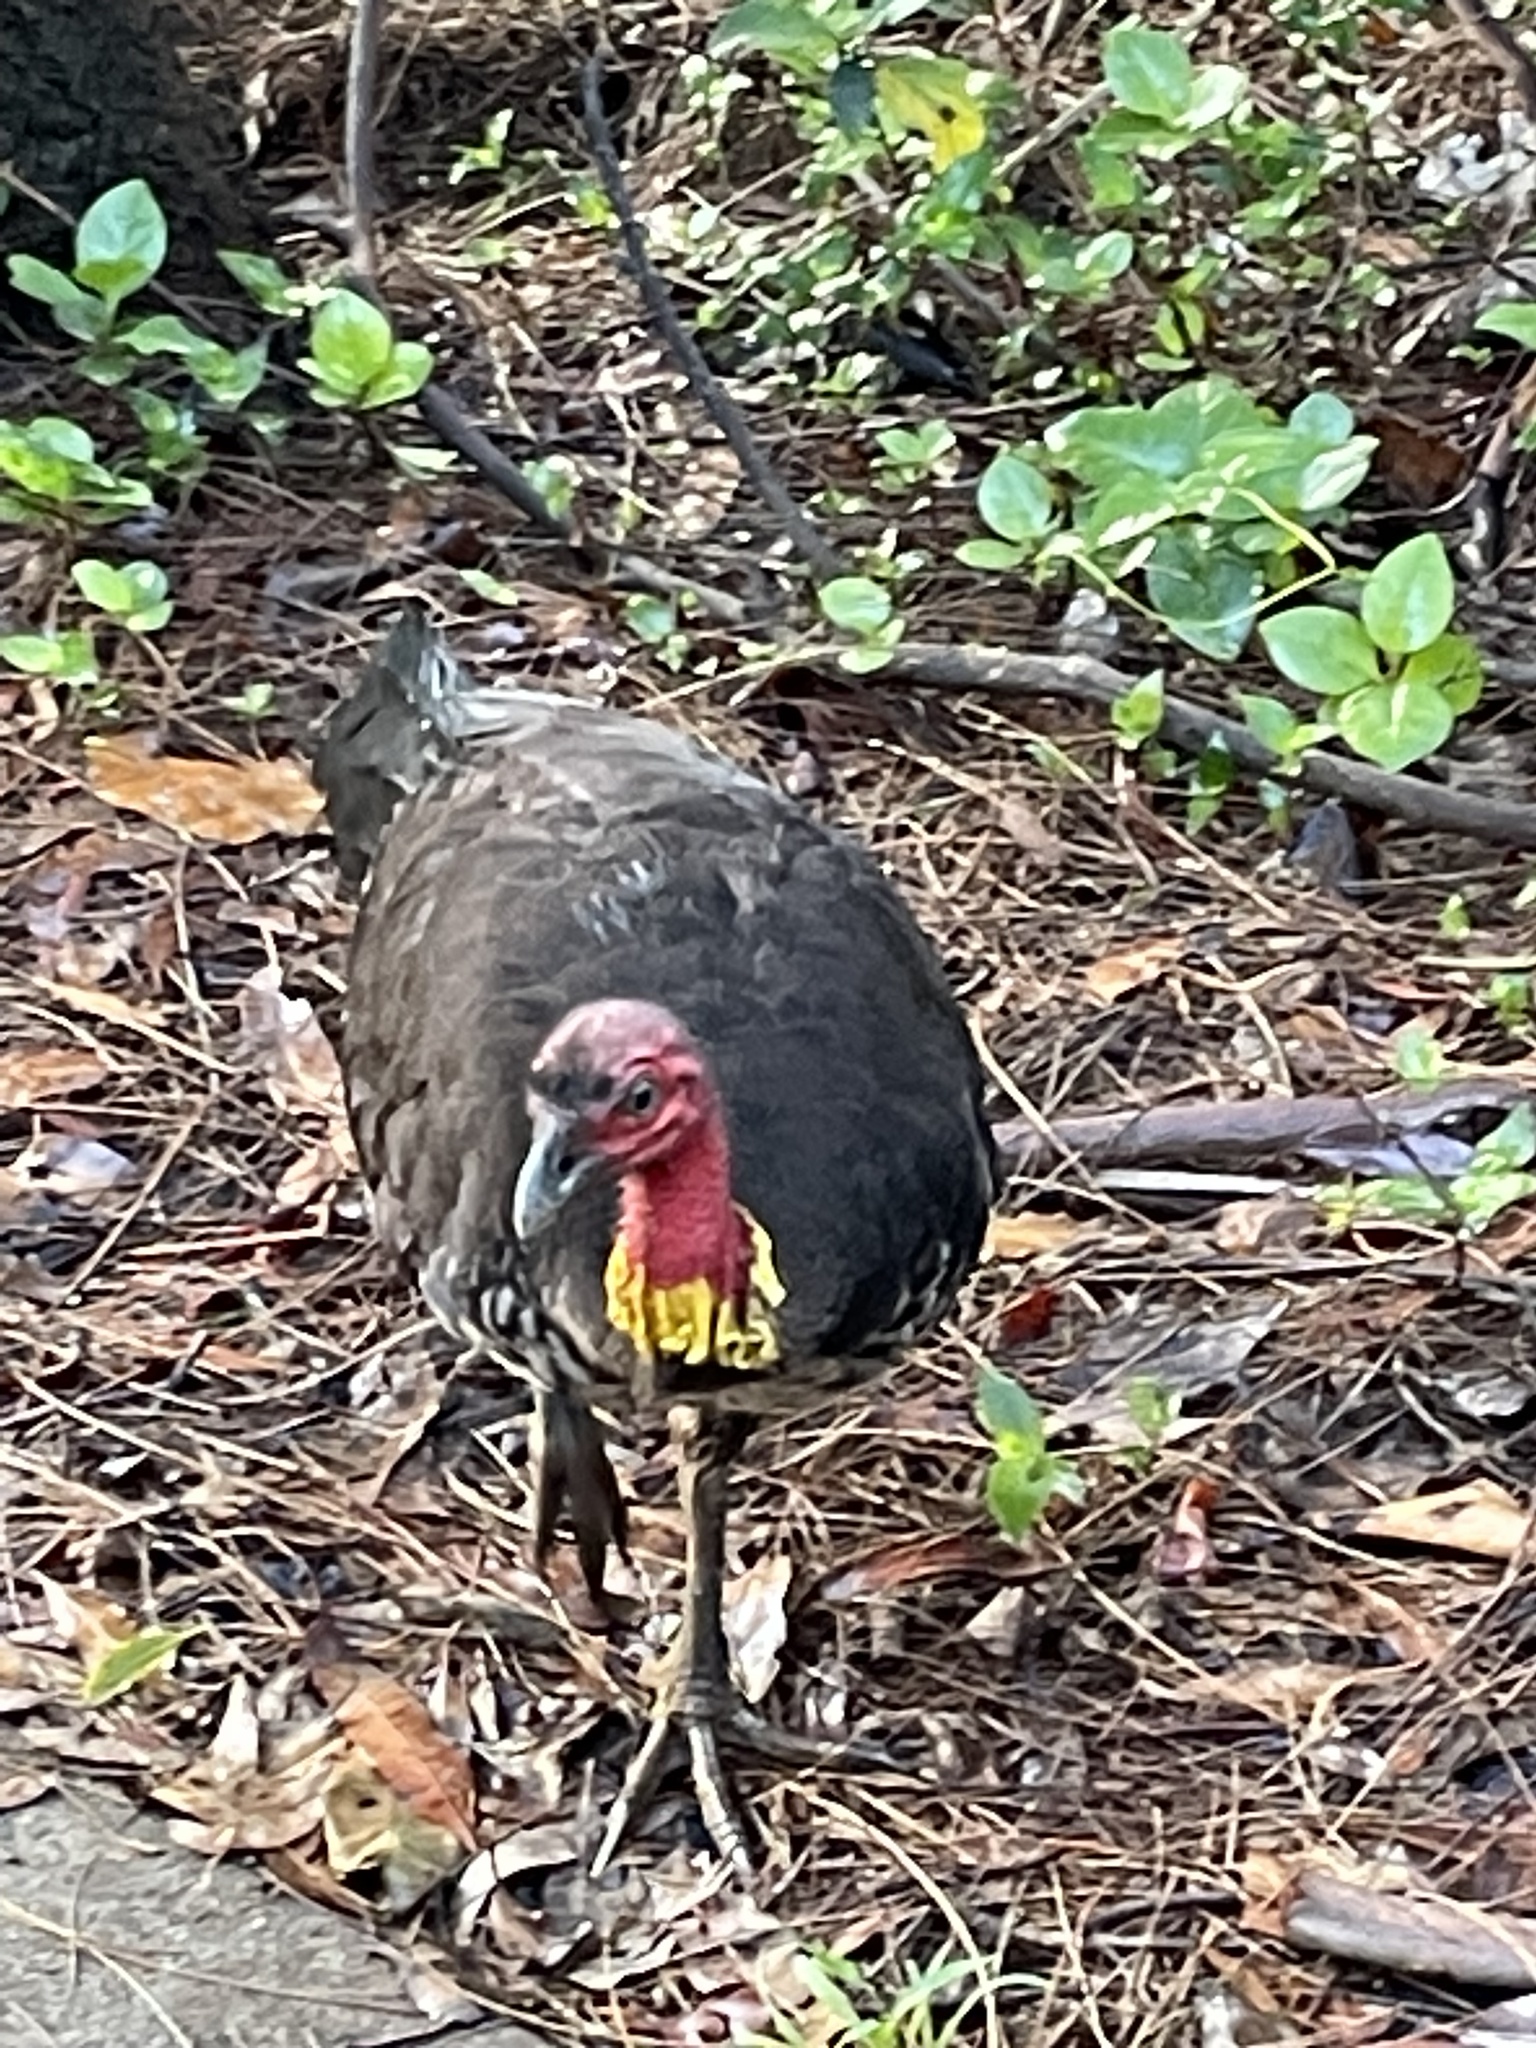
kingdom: Animalia
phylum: Chordata
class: Aves
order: Galliformes
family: Megapodiidae
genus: Alectura
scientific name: Alectura lathami
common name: Australian brushturkey
